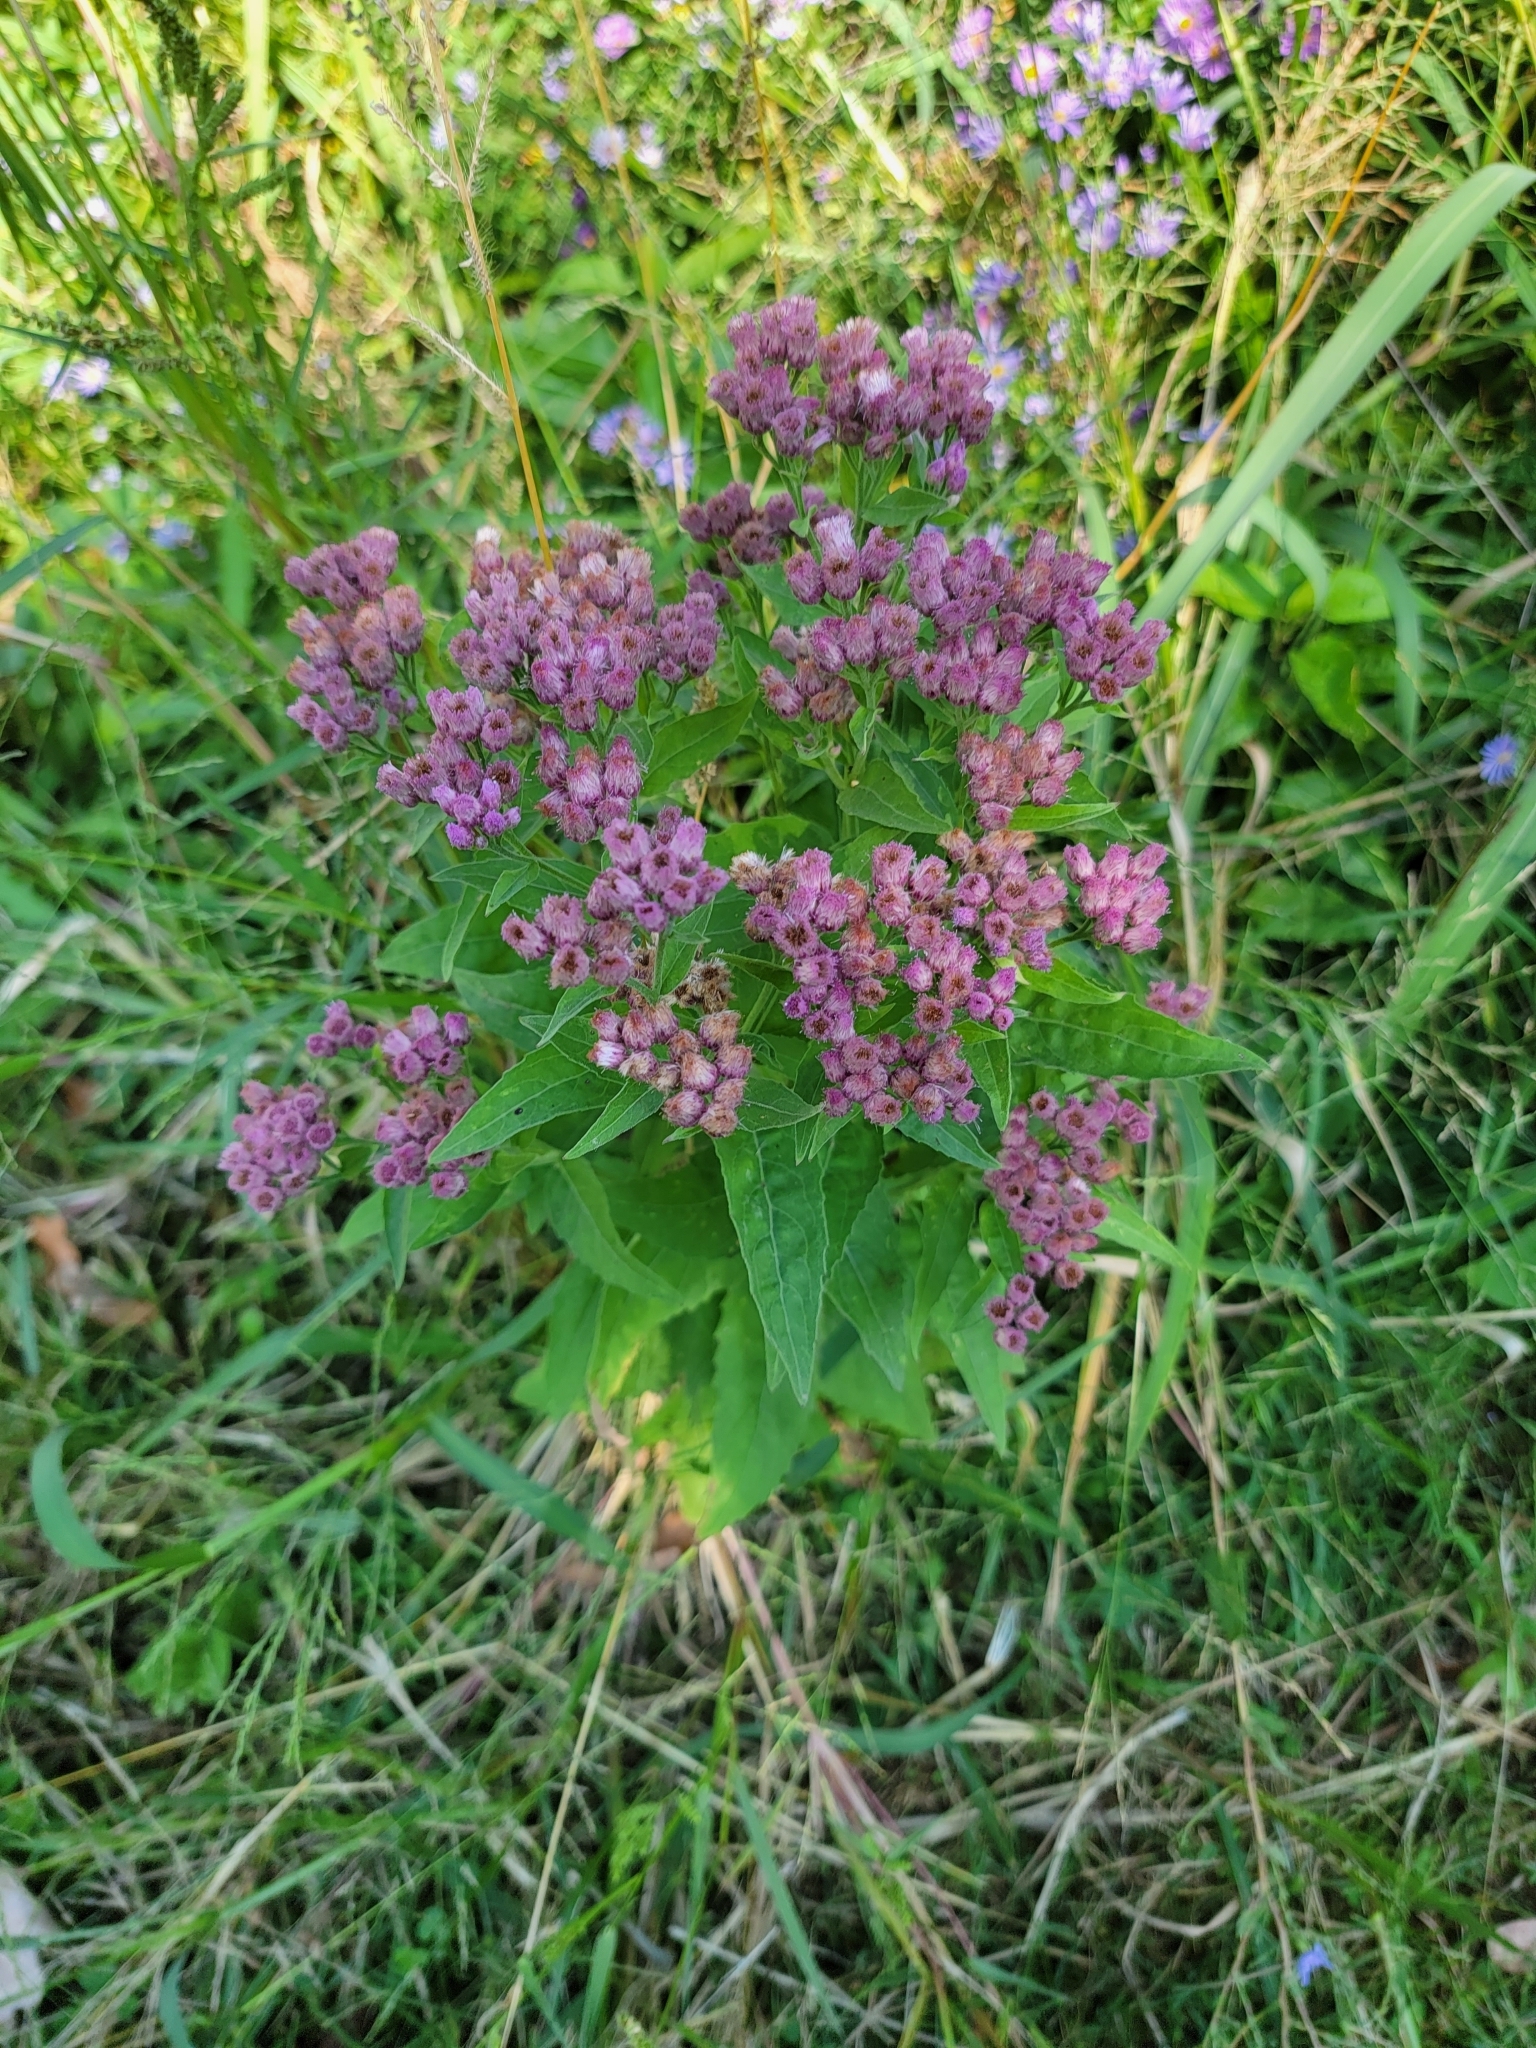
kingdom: Plantae
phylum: Tracheophyta
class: Magnoliopsida
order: Asterales
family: Asteraceae
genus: Pluchea
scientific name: Pluchea odorata
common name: Saltmarsh fleabane
